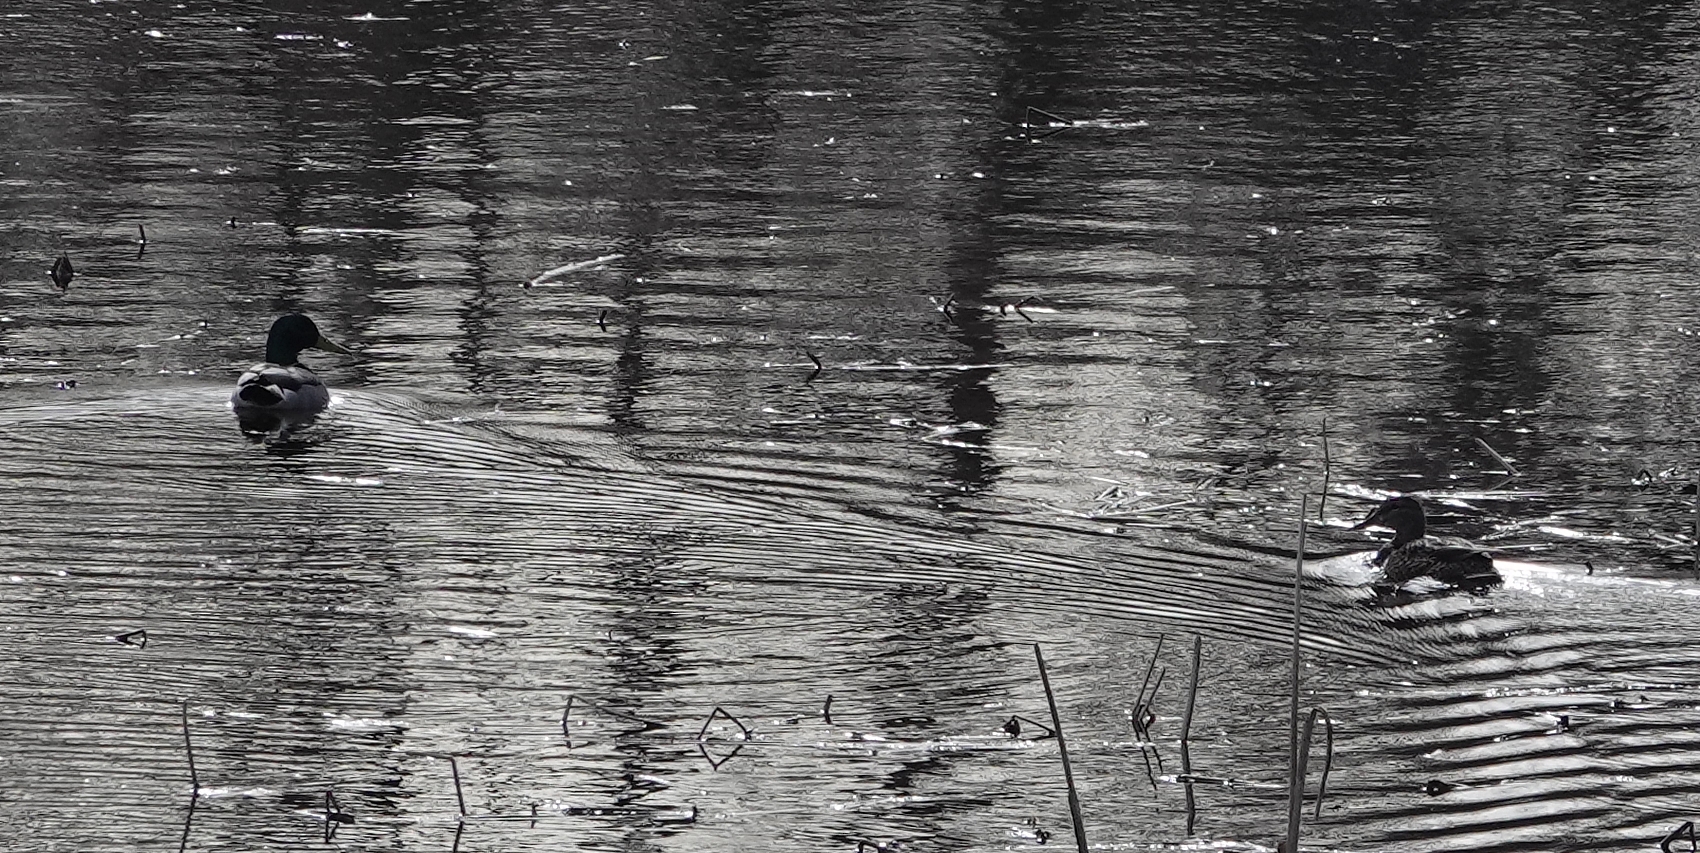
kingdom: Animalia
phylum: Chordata
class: Aves
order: Anseriformes
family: Anatidae
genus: Anas
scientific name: Anas platyrhynchos
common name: Mallard
